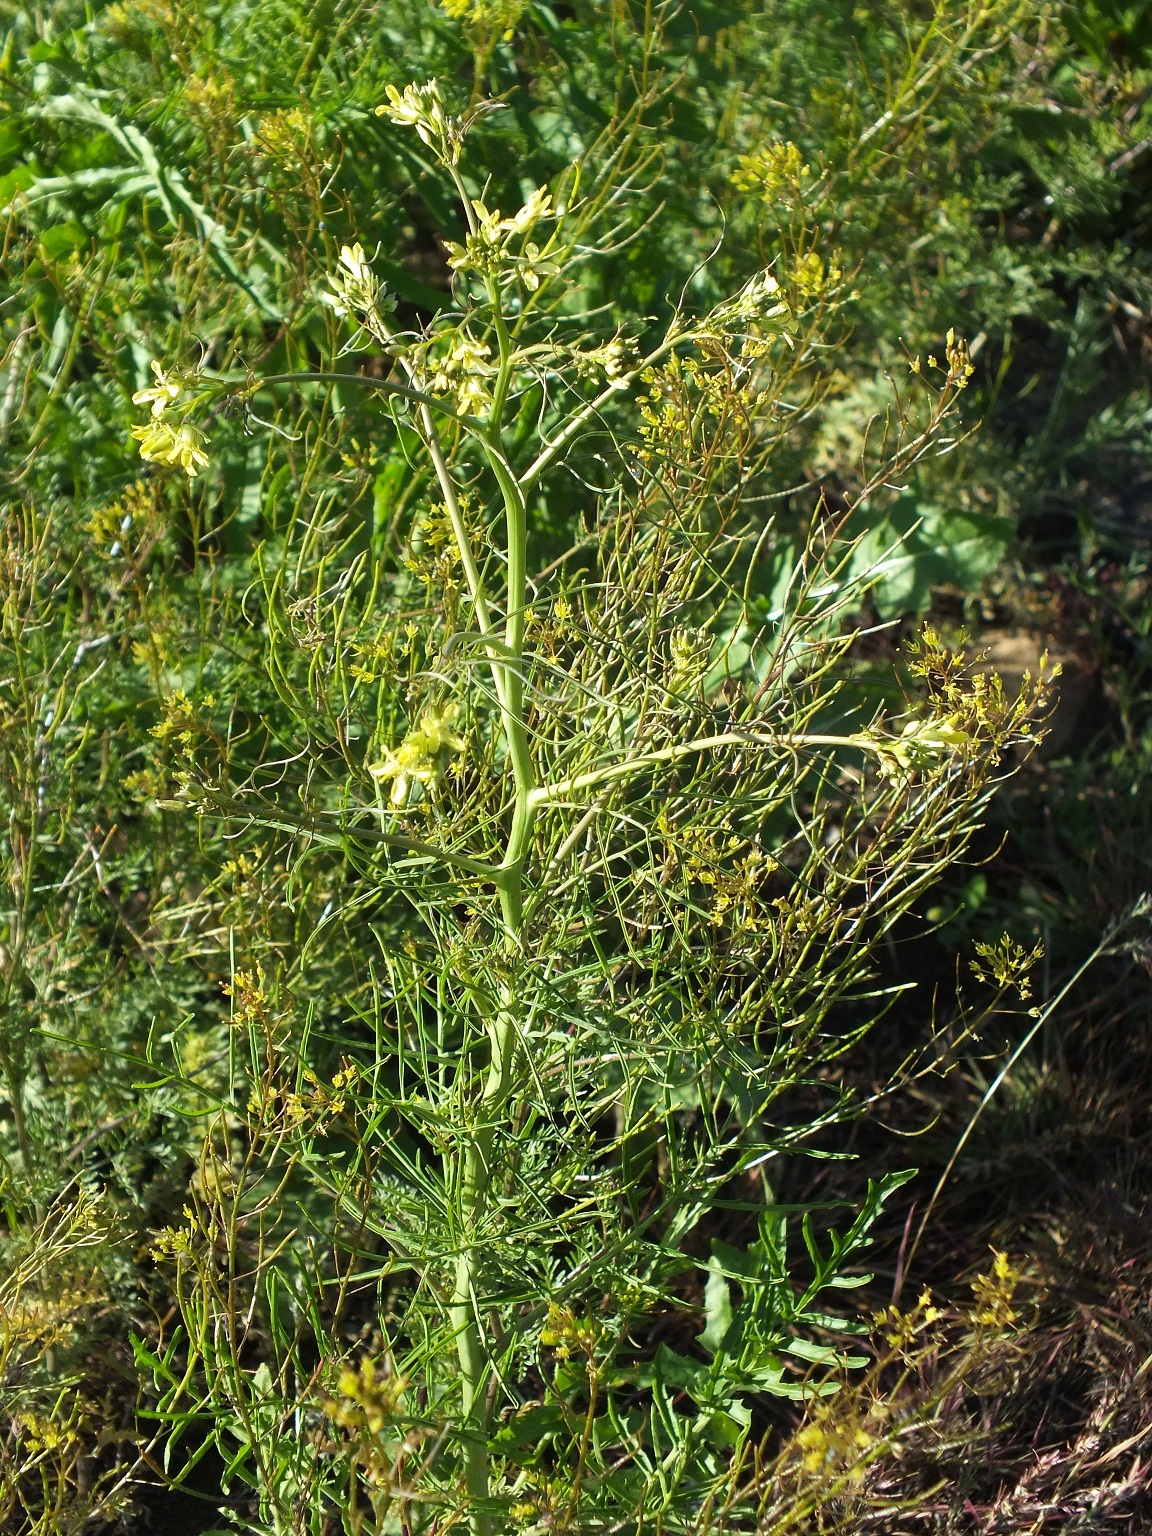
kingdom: Plantae
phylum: Tracheophyta
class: Magnoliopsida
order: Brassicales
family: Brassicaceae
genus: Sisymbrium
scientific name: Sisymbrium altissimum
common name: Tall rocket
